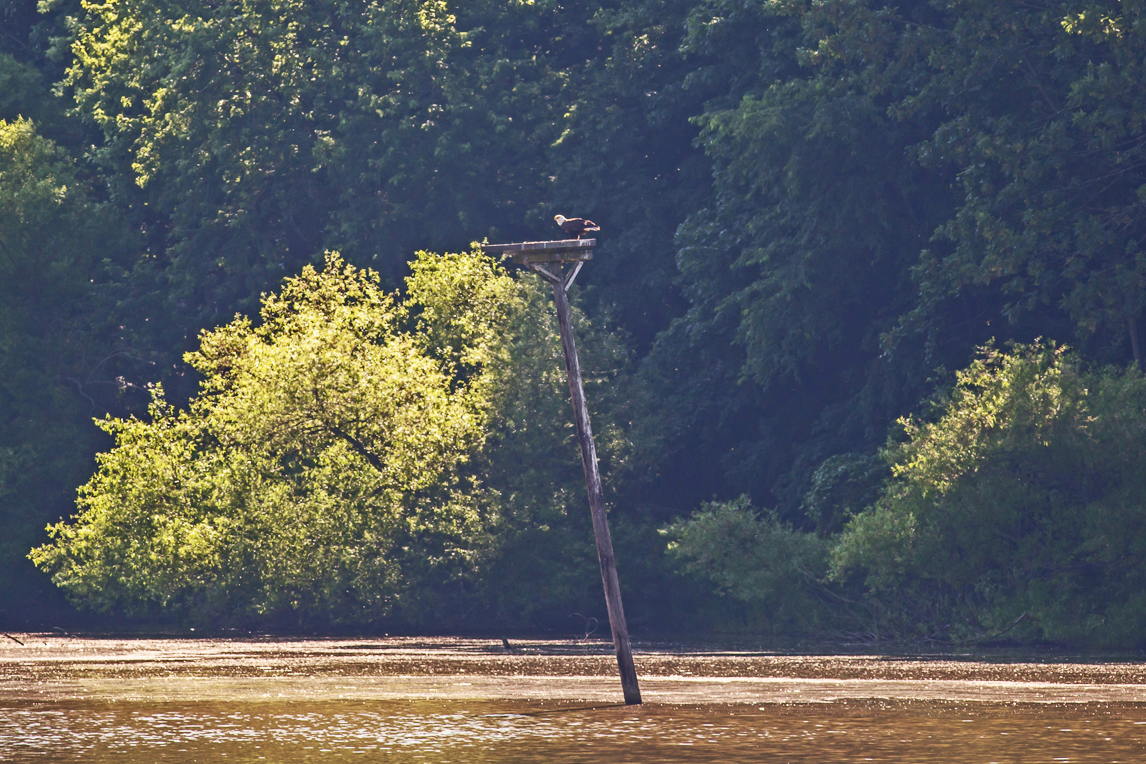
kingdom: Animalia
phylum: Chordata
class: Aves
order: Accipitriformes
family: Accipitridae
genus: Haliaeetus
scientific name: Haliaeetus leucocephalus
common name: Bald eagle
